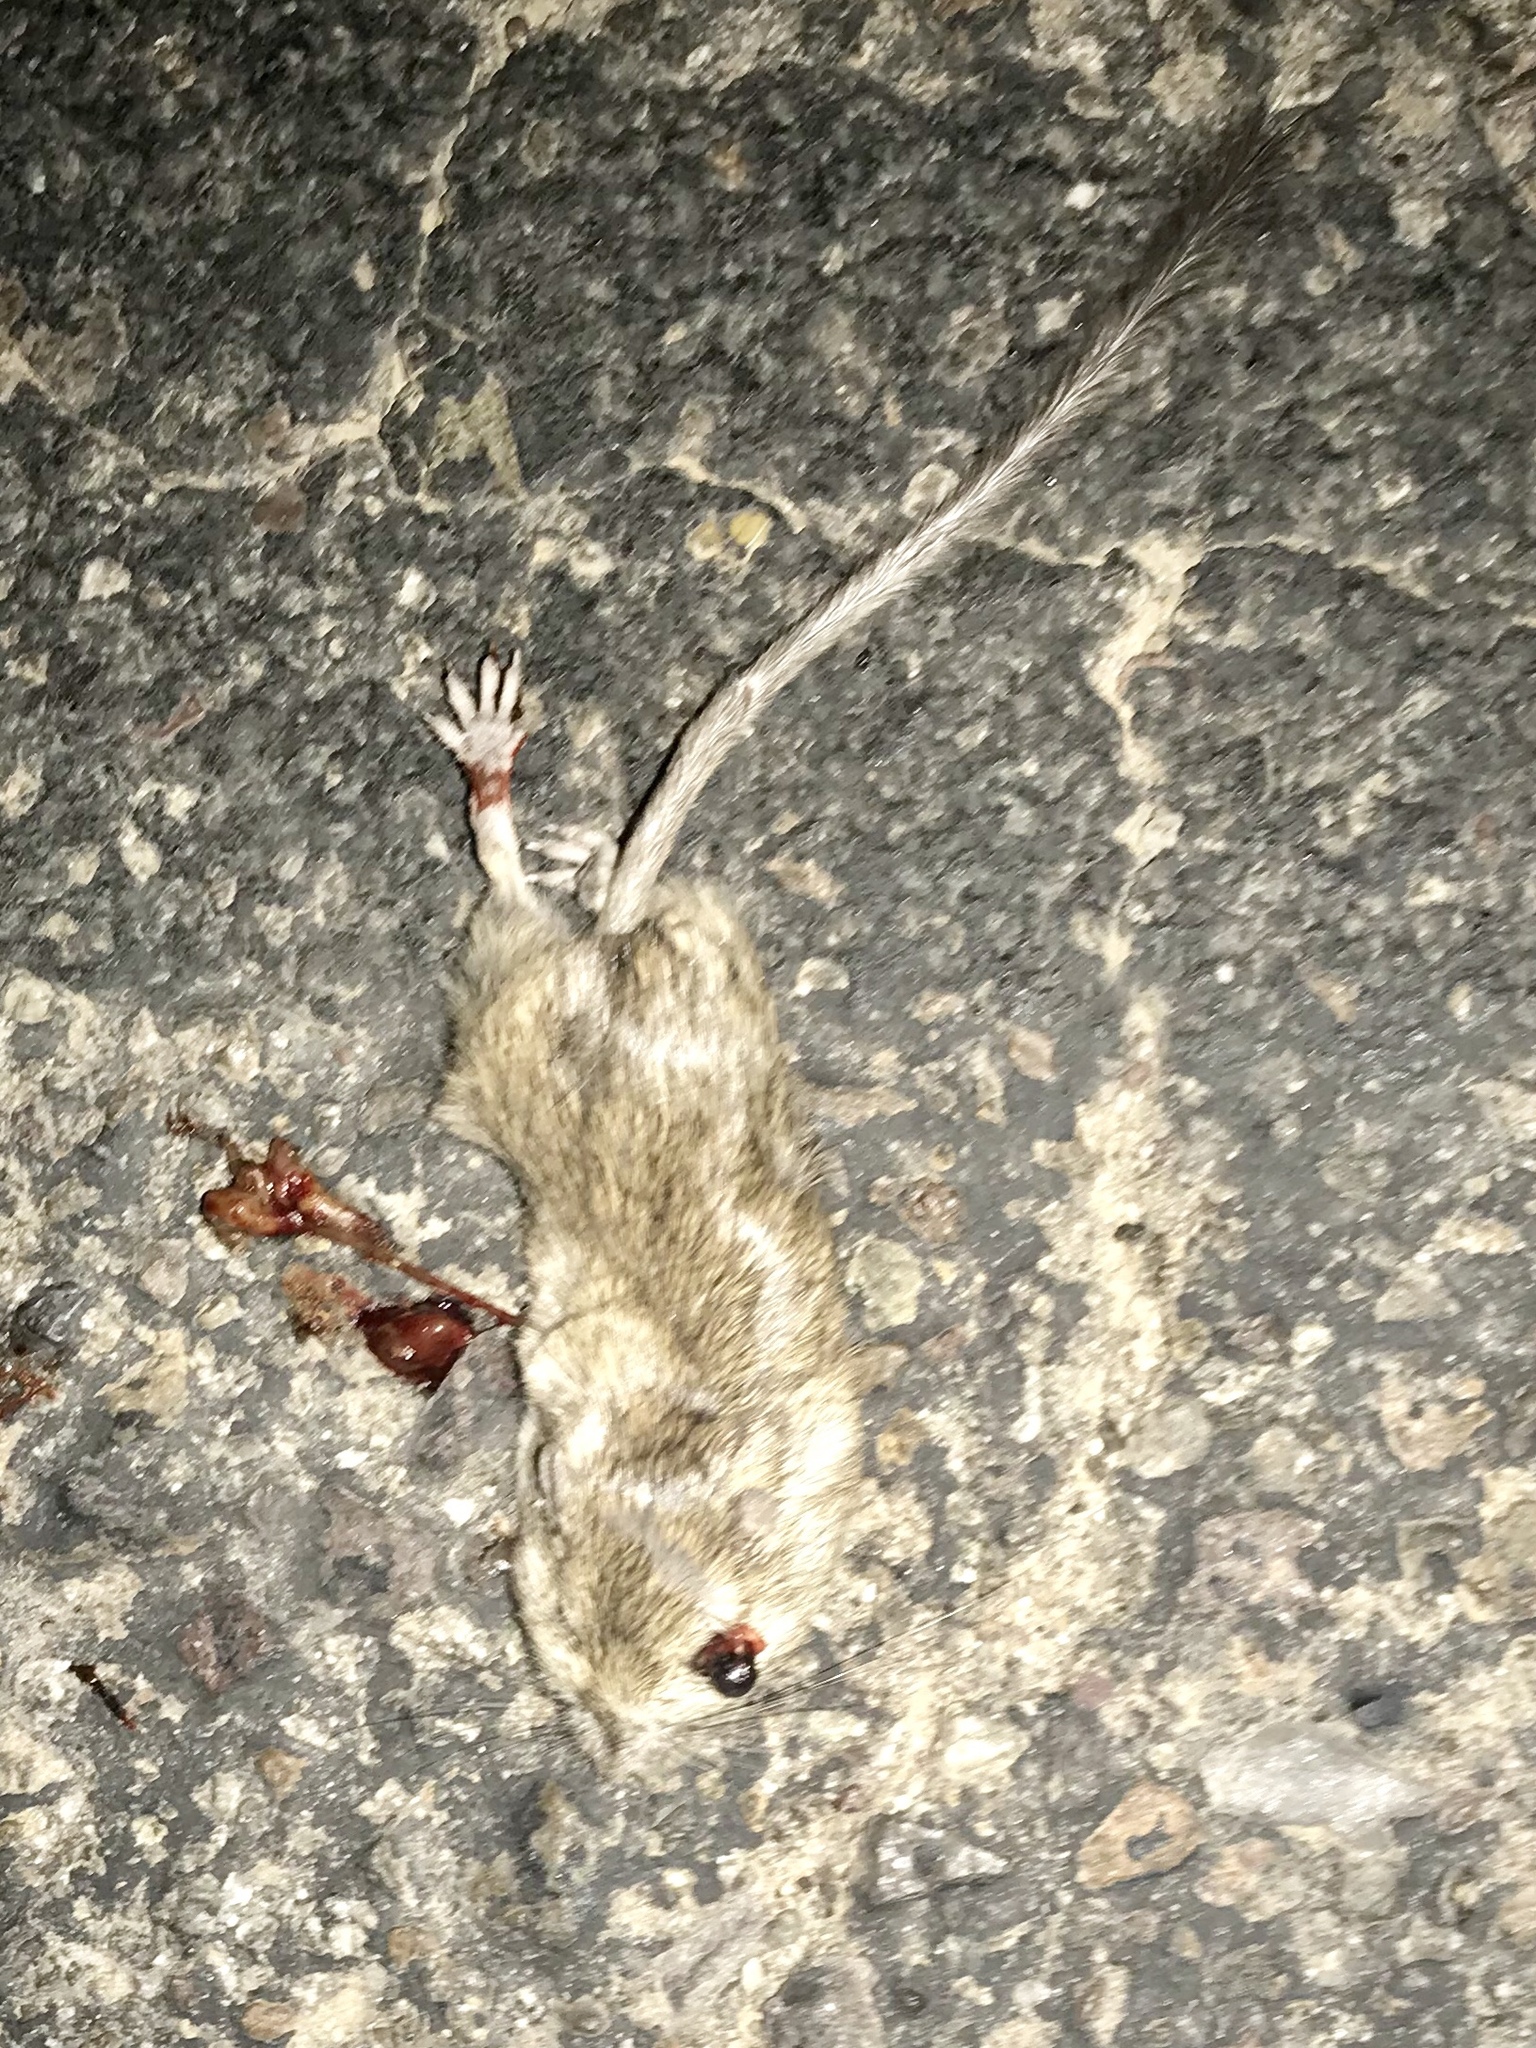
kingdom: Animalia
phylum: Chordata
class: Mammalia
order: Rodentia
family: Heteromyidae
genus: Chaetodipus
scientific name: Chaetodipus hispidus
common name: Hispid pocket mouse
